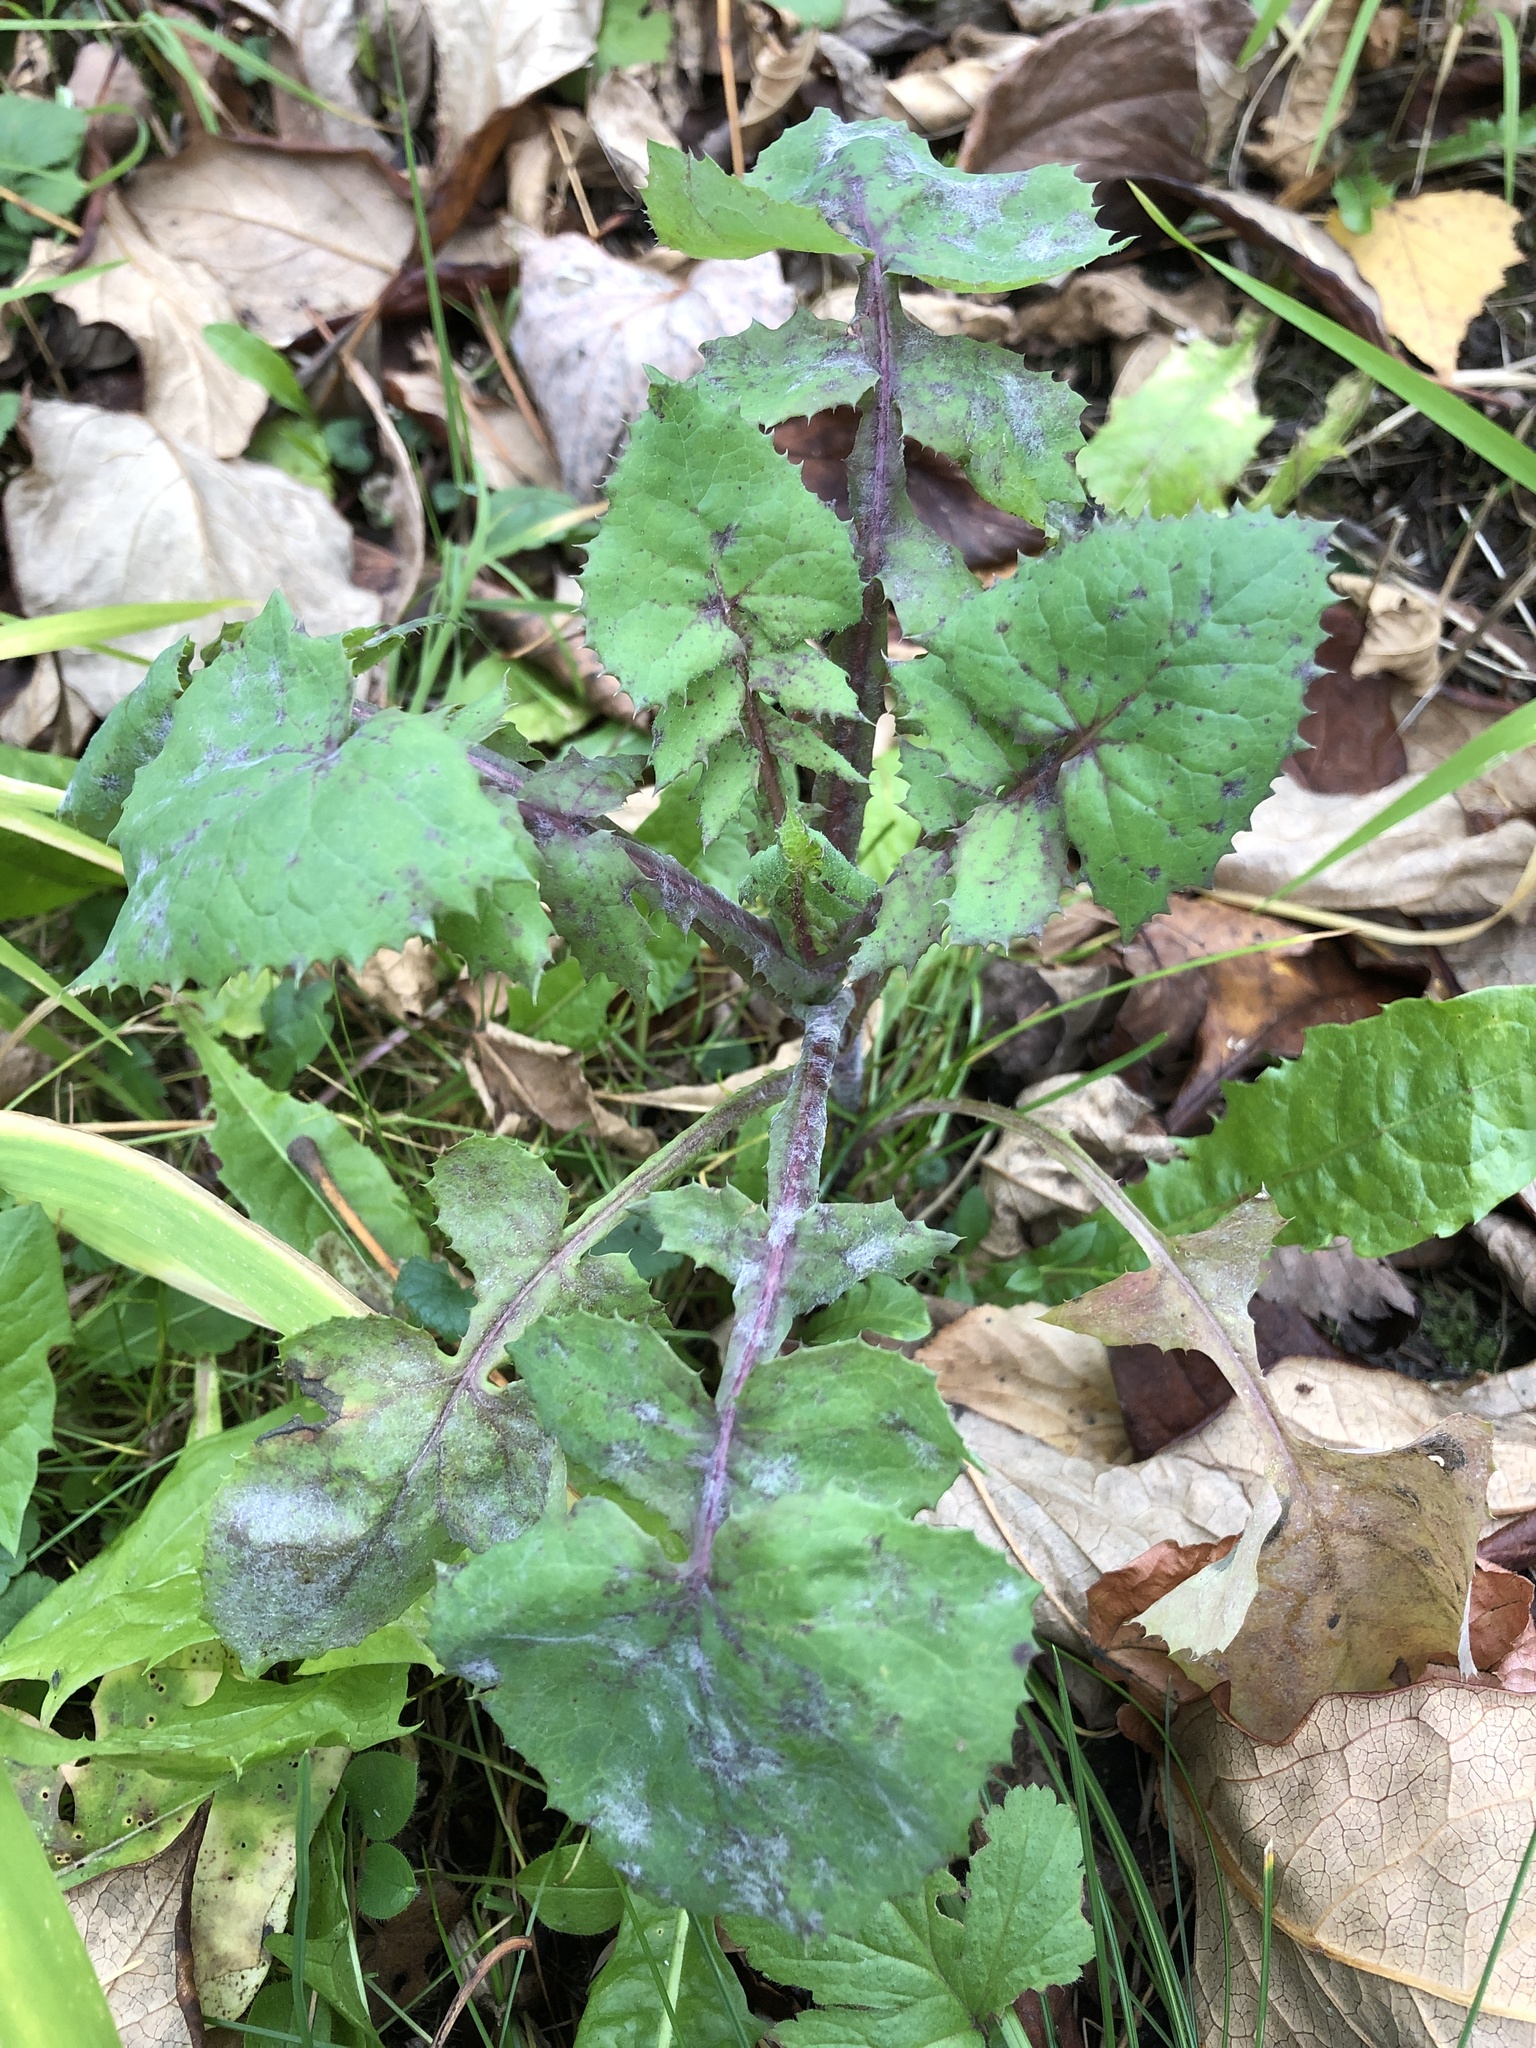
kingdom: Plantae
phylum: Tracheophyta
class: Magnoliopsida
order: Asterales
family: Asteraceae
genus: Sonchus
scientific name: Sonchus oleraceus
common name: Common sowthistle
